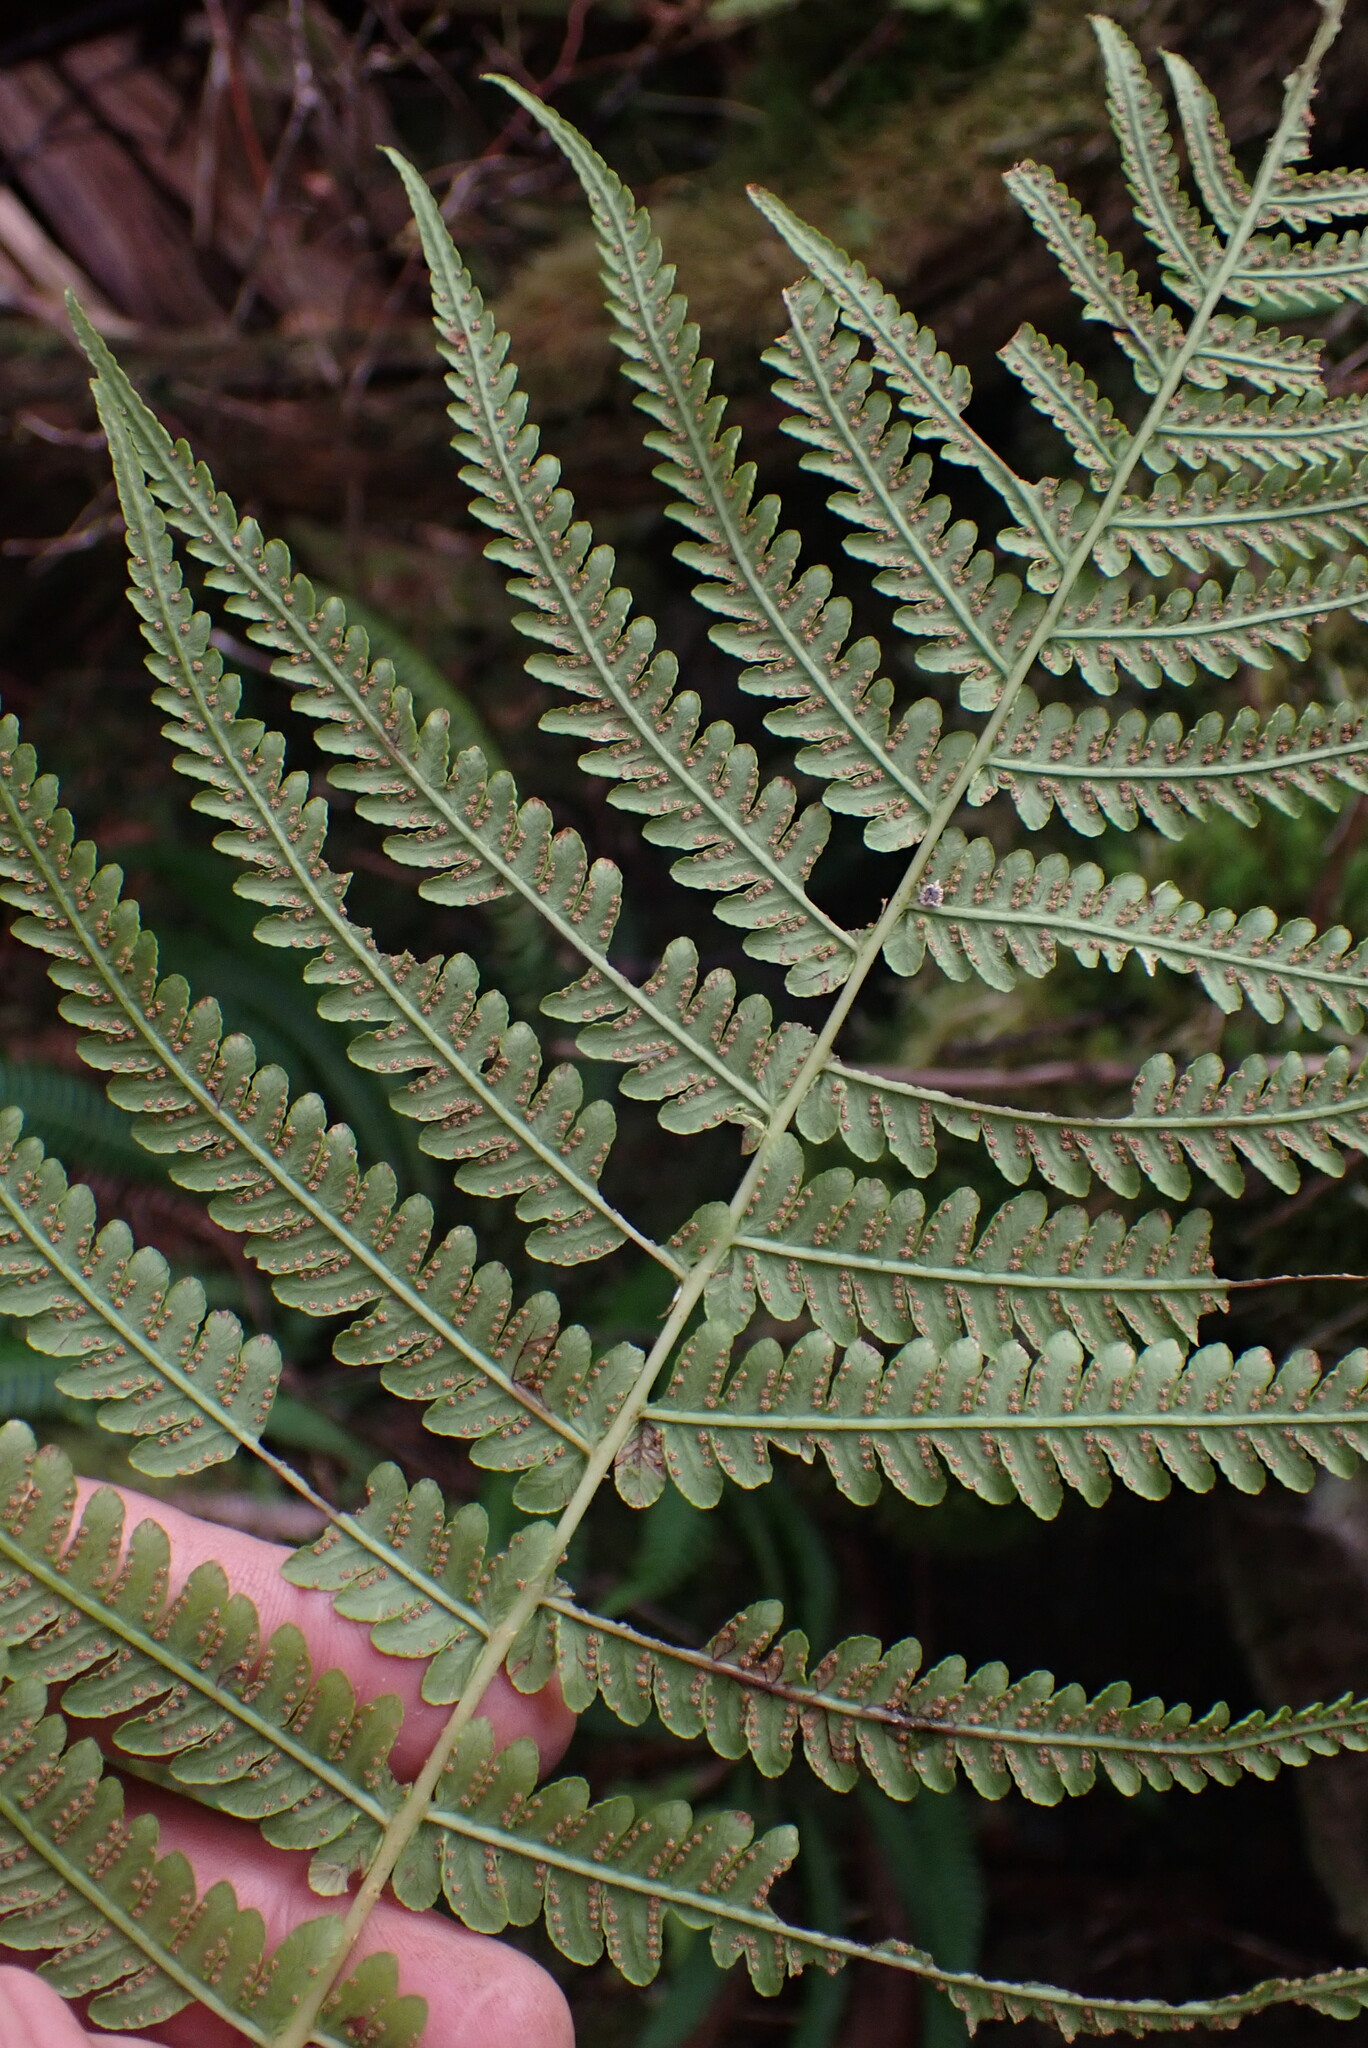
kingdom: Plantae
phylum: Tracheophyta
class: Polypodiopsida
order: Polypodiales
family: Thelypteridaceae
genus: Oreopteris
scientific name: Oreopteris quelpartensis
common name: Mountain fern
